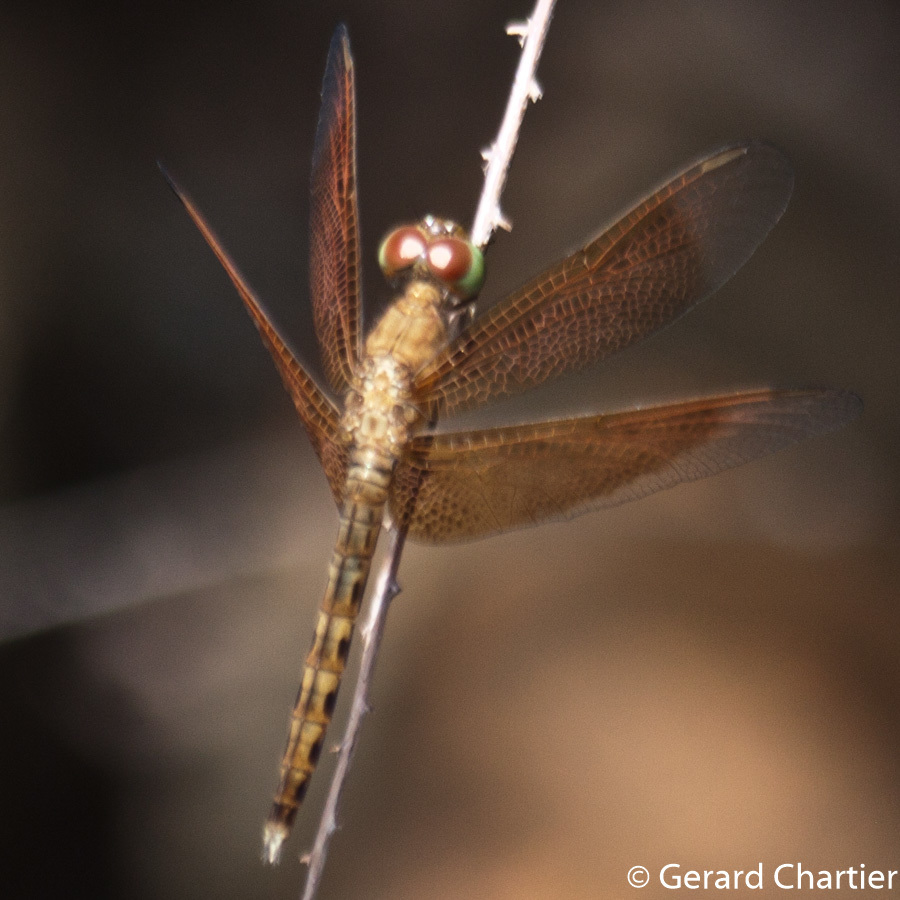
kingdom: Animalia
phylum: Arthropoda
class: Insecta
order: Odonata
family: Libellulidae
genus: Neurothemis
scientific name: Neurothemis fluctuans
